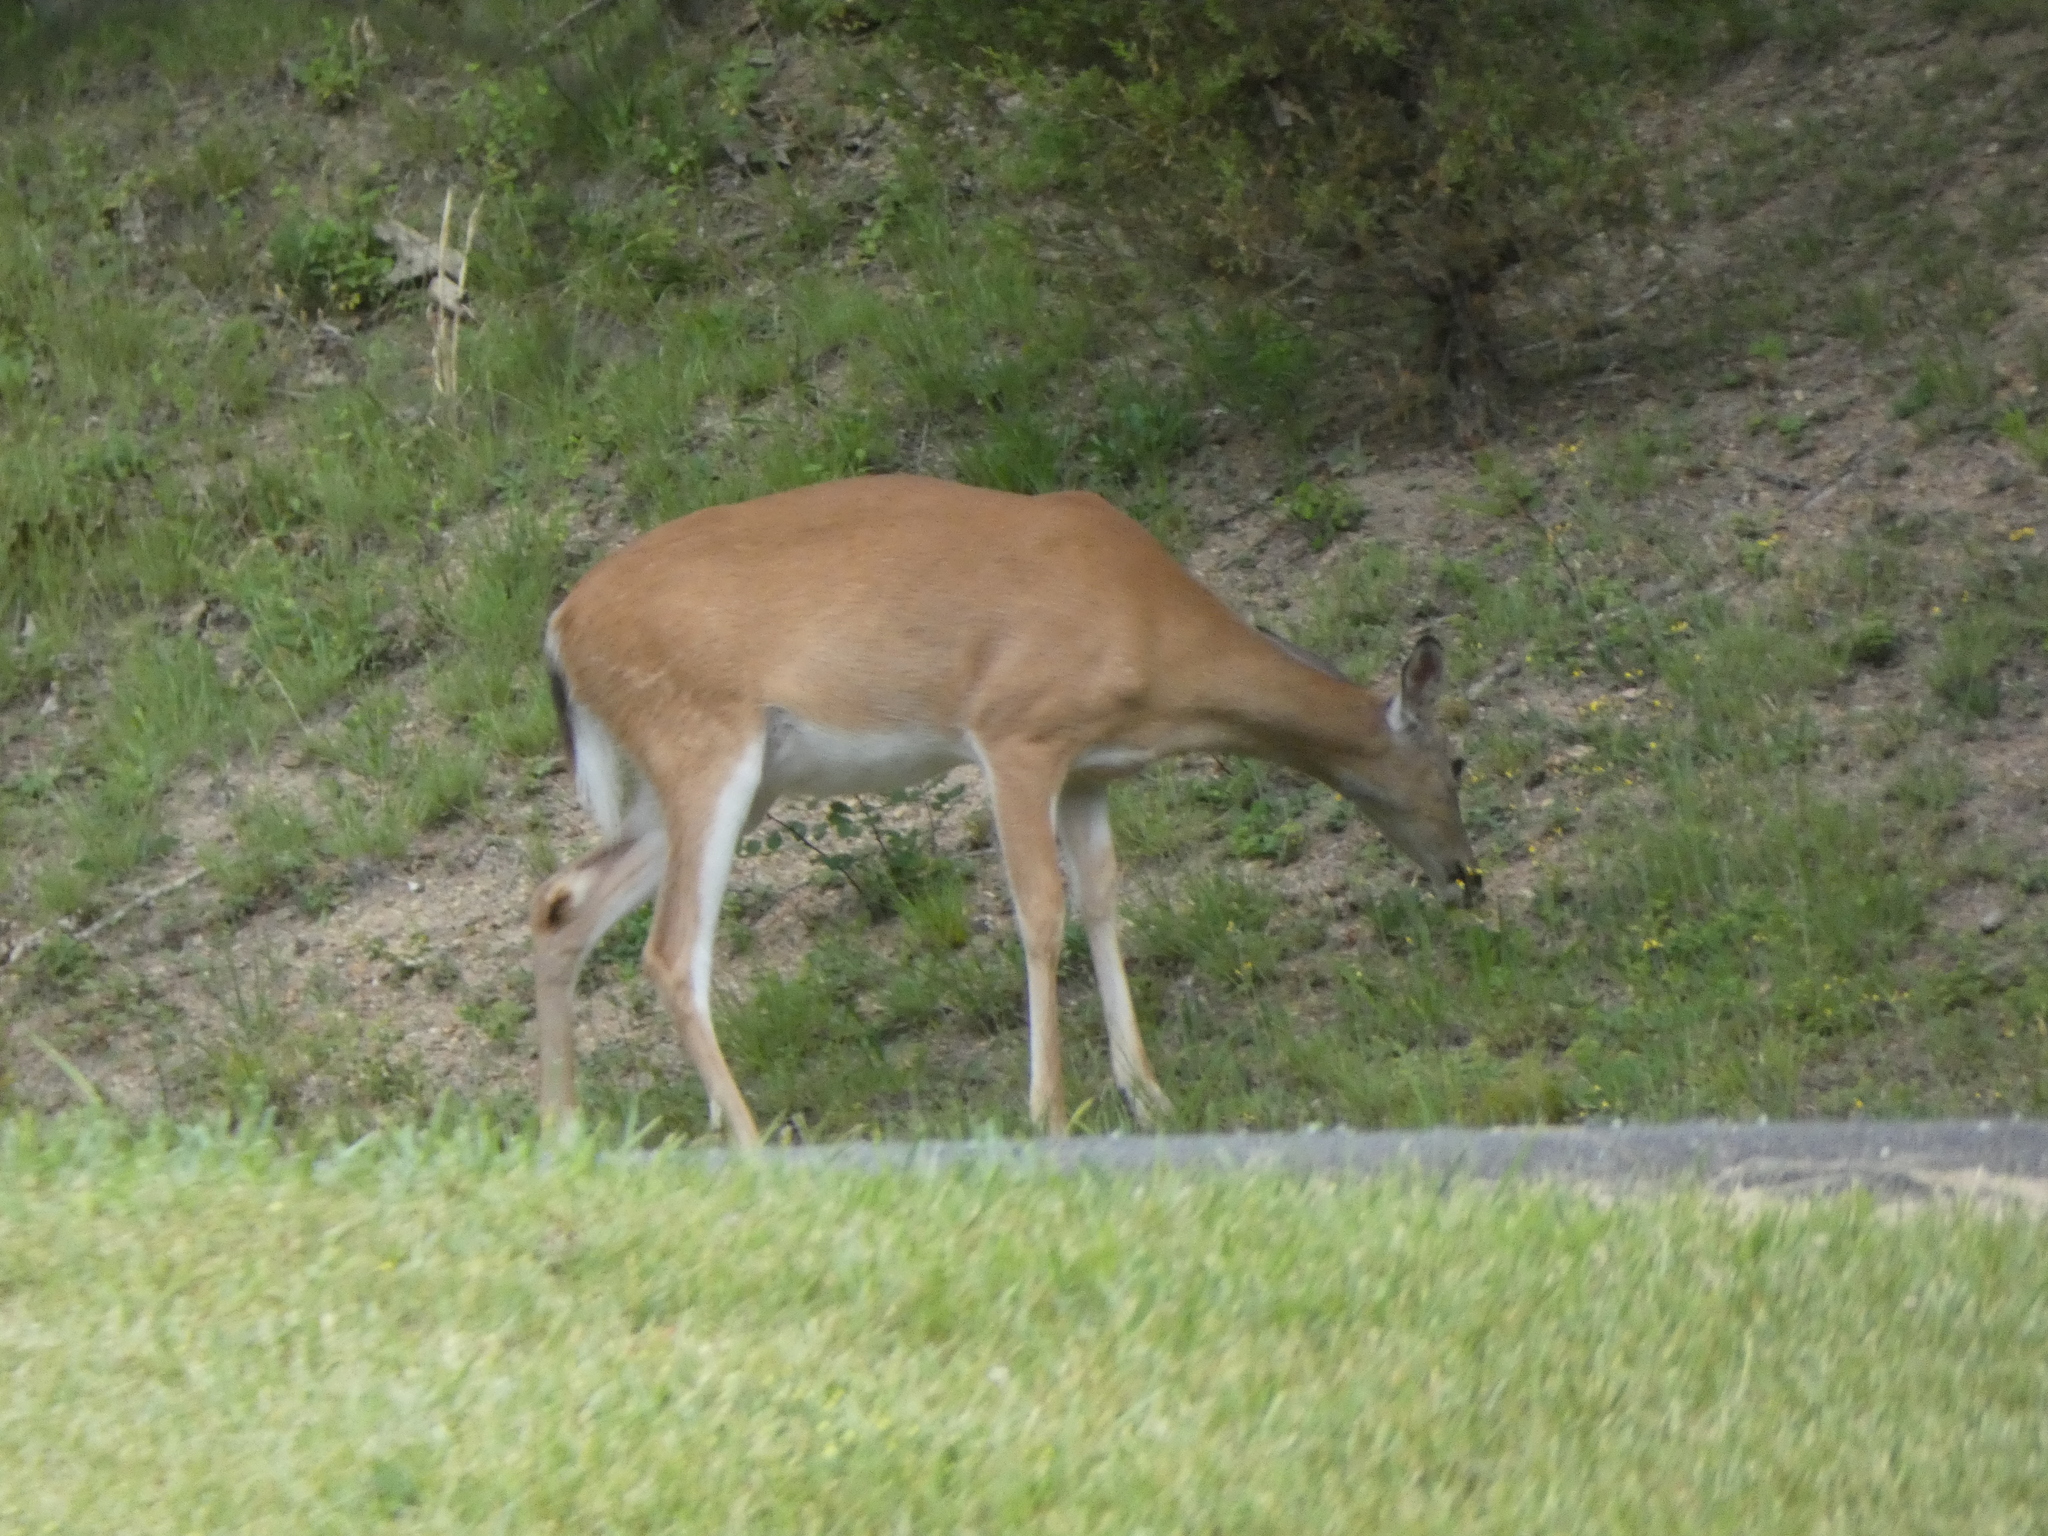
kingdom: Animalia
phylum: Chordata
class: Mammalia
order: Artiodactyla
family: Cervidae
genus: Odocoileus
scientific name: Odocoileus virginianus
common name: White-tailed deer
